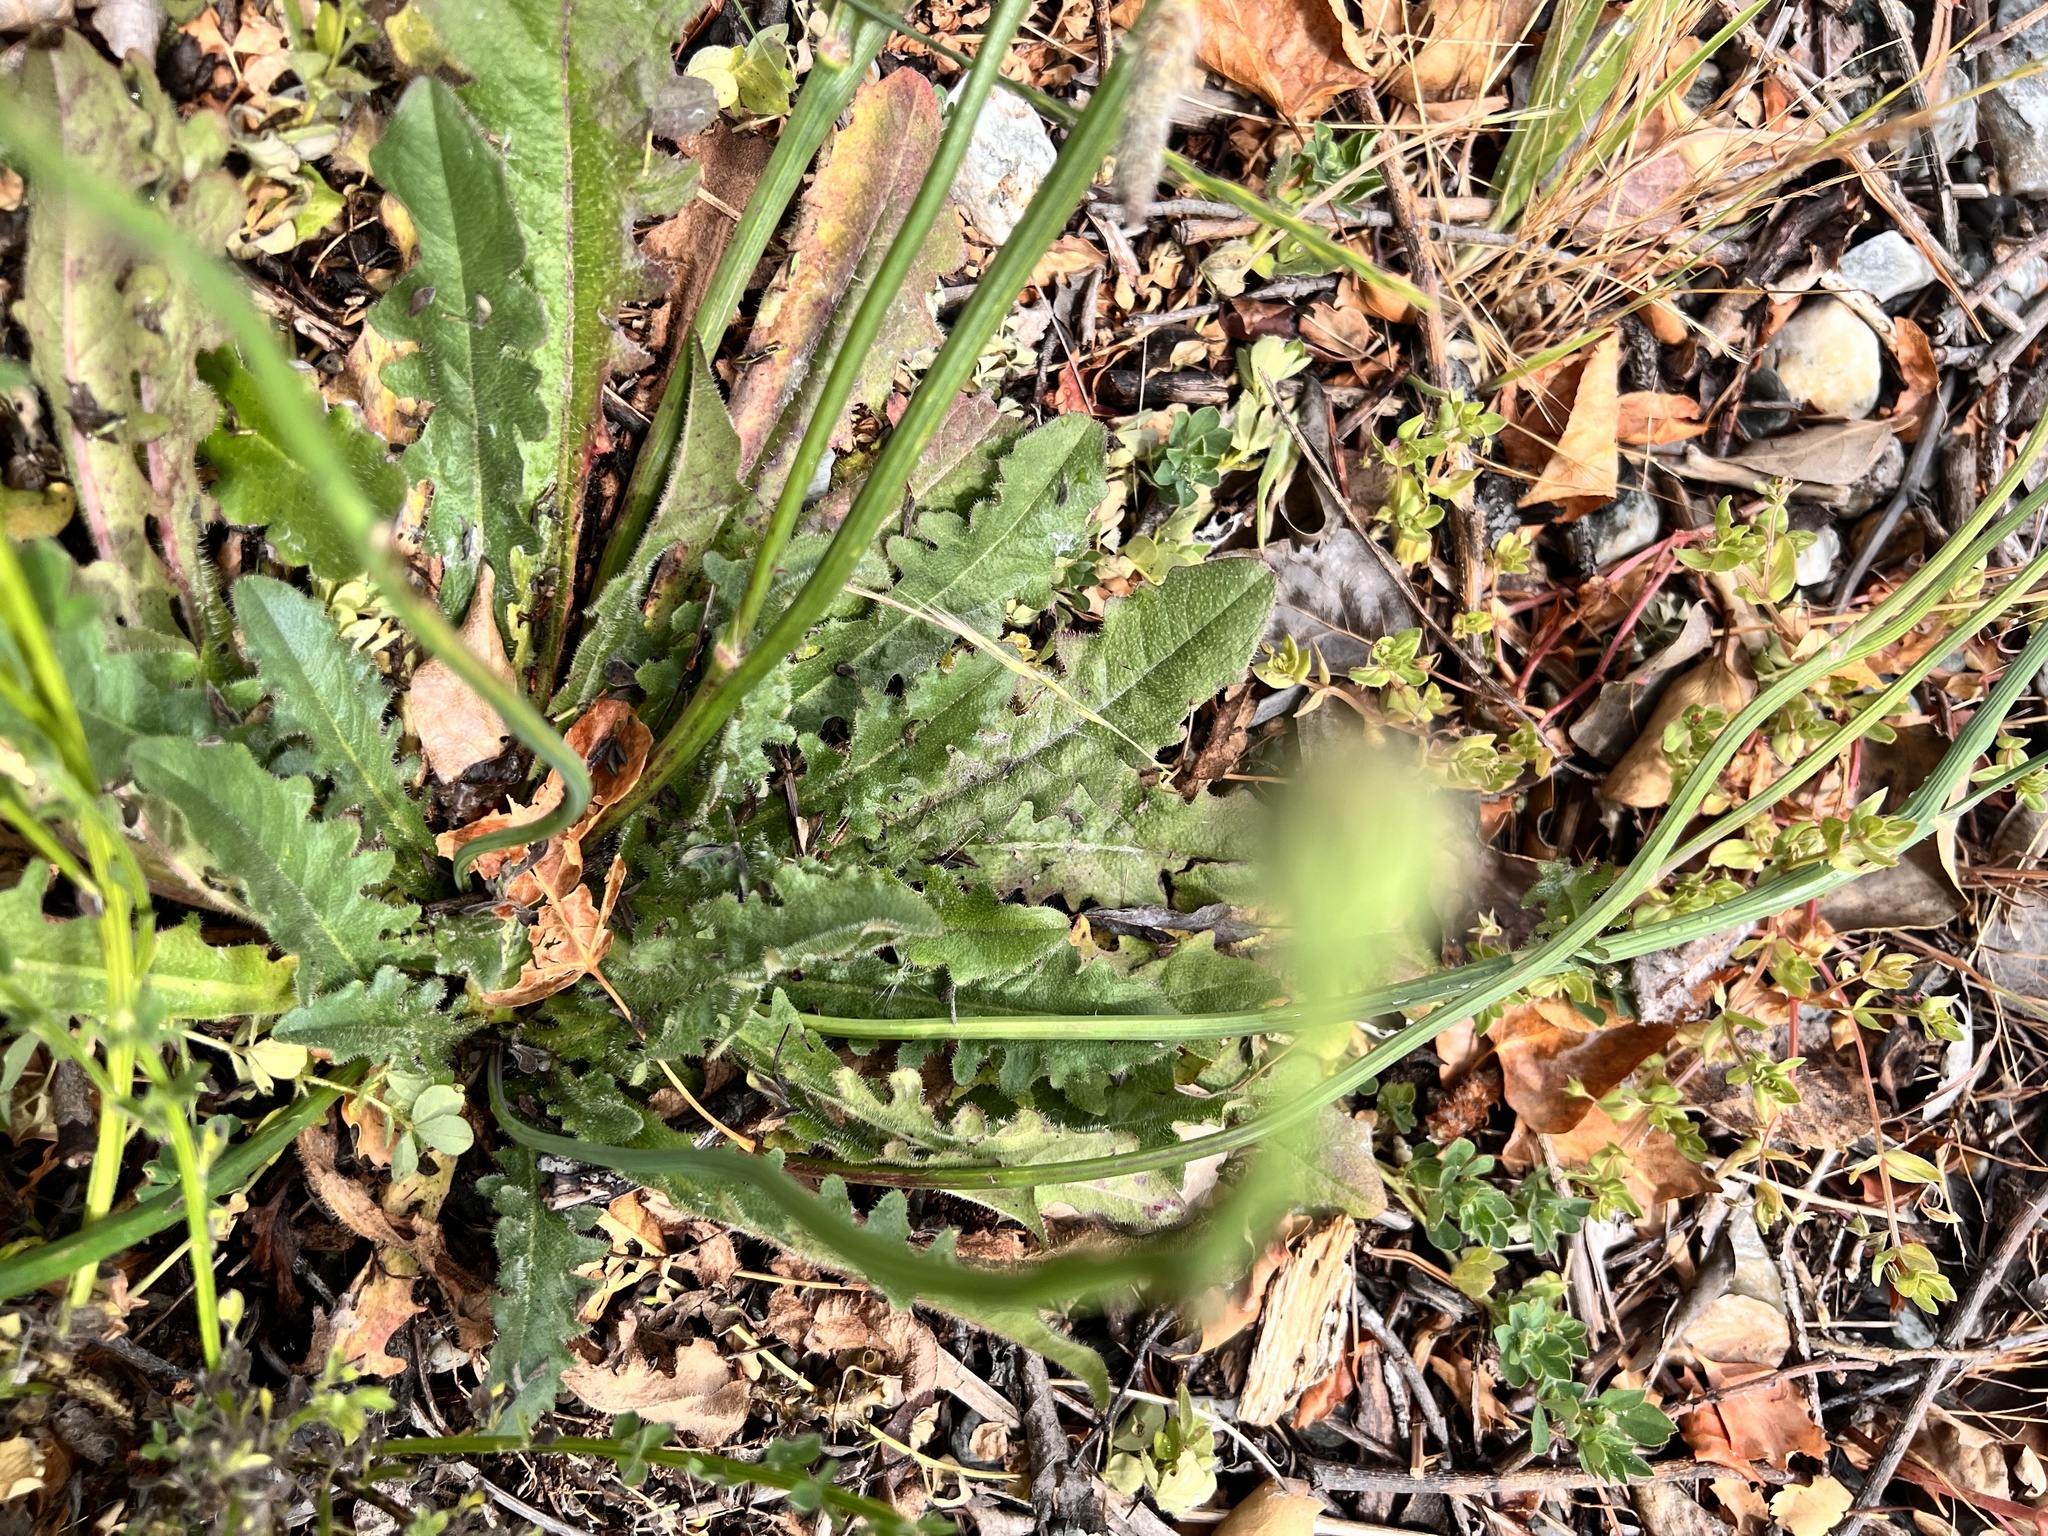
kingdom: Plantae
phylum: Tracheophyta
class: Magnoliopsida
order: Asterales
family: Asteraceae
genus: Hypochaeris
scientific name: Hypochaeris radicata
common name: Flatweed
